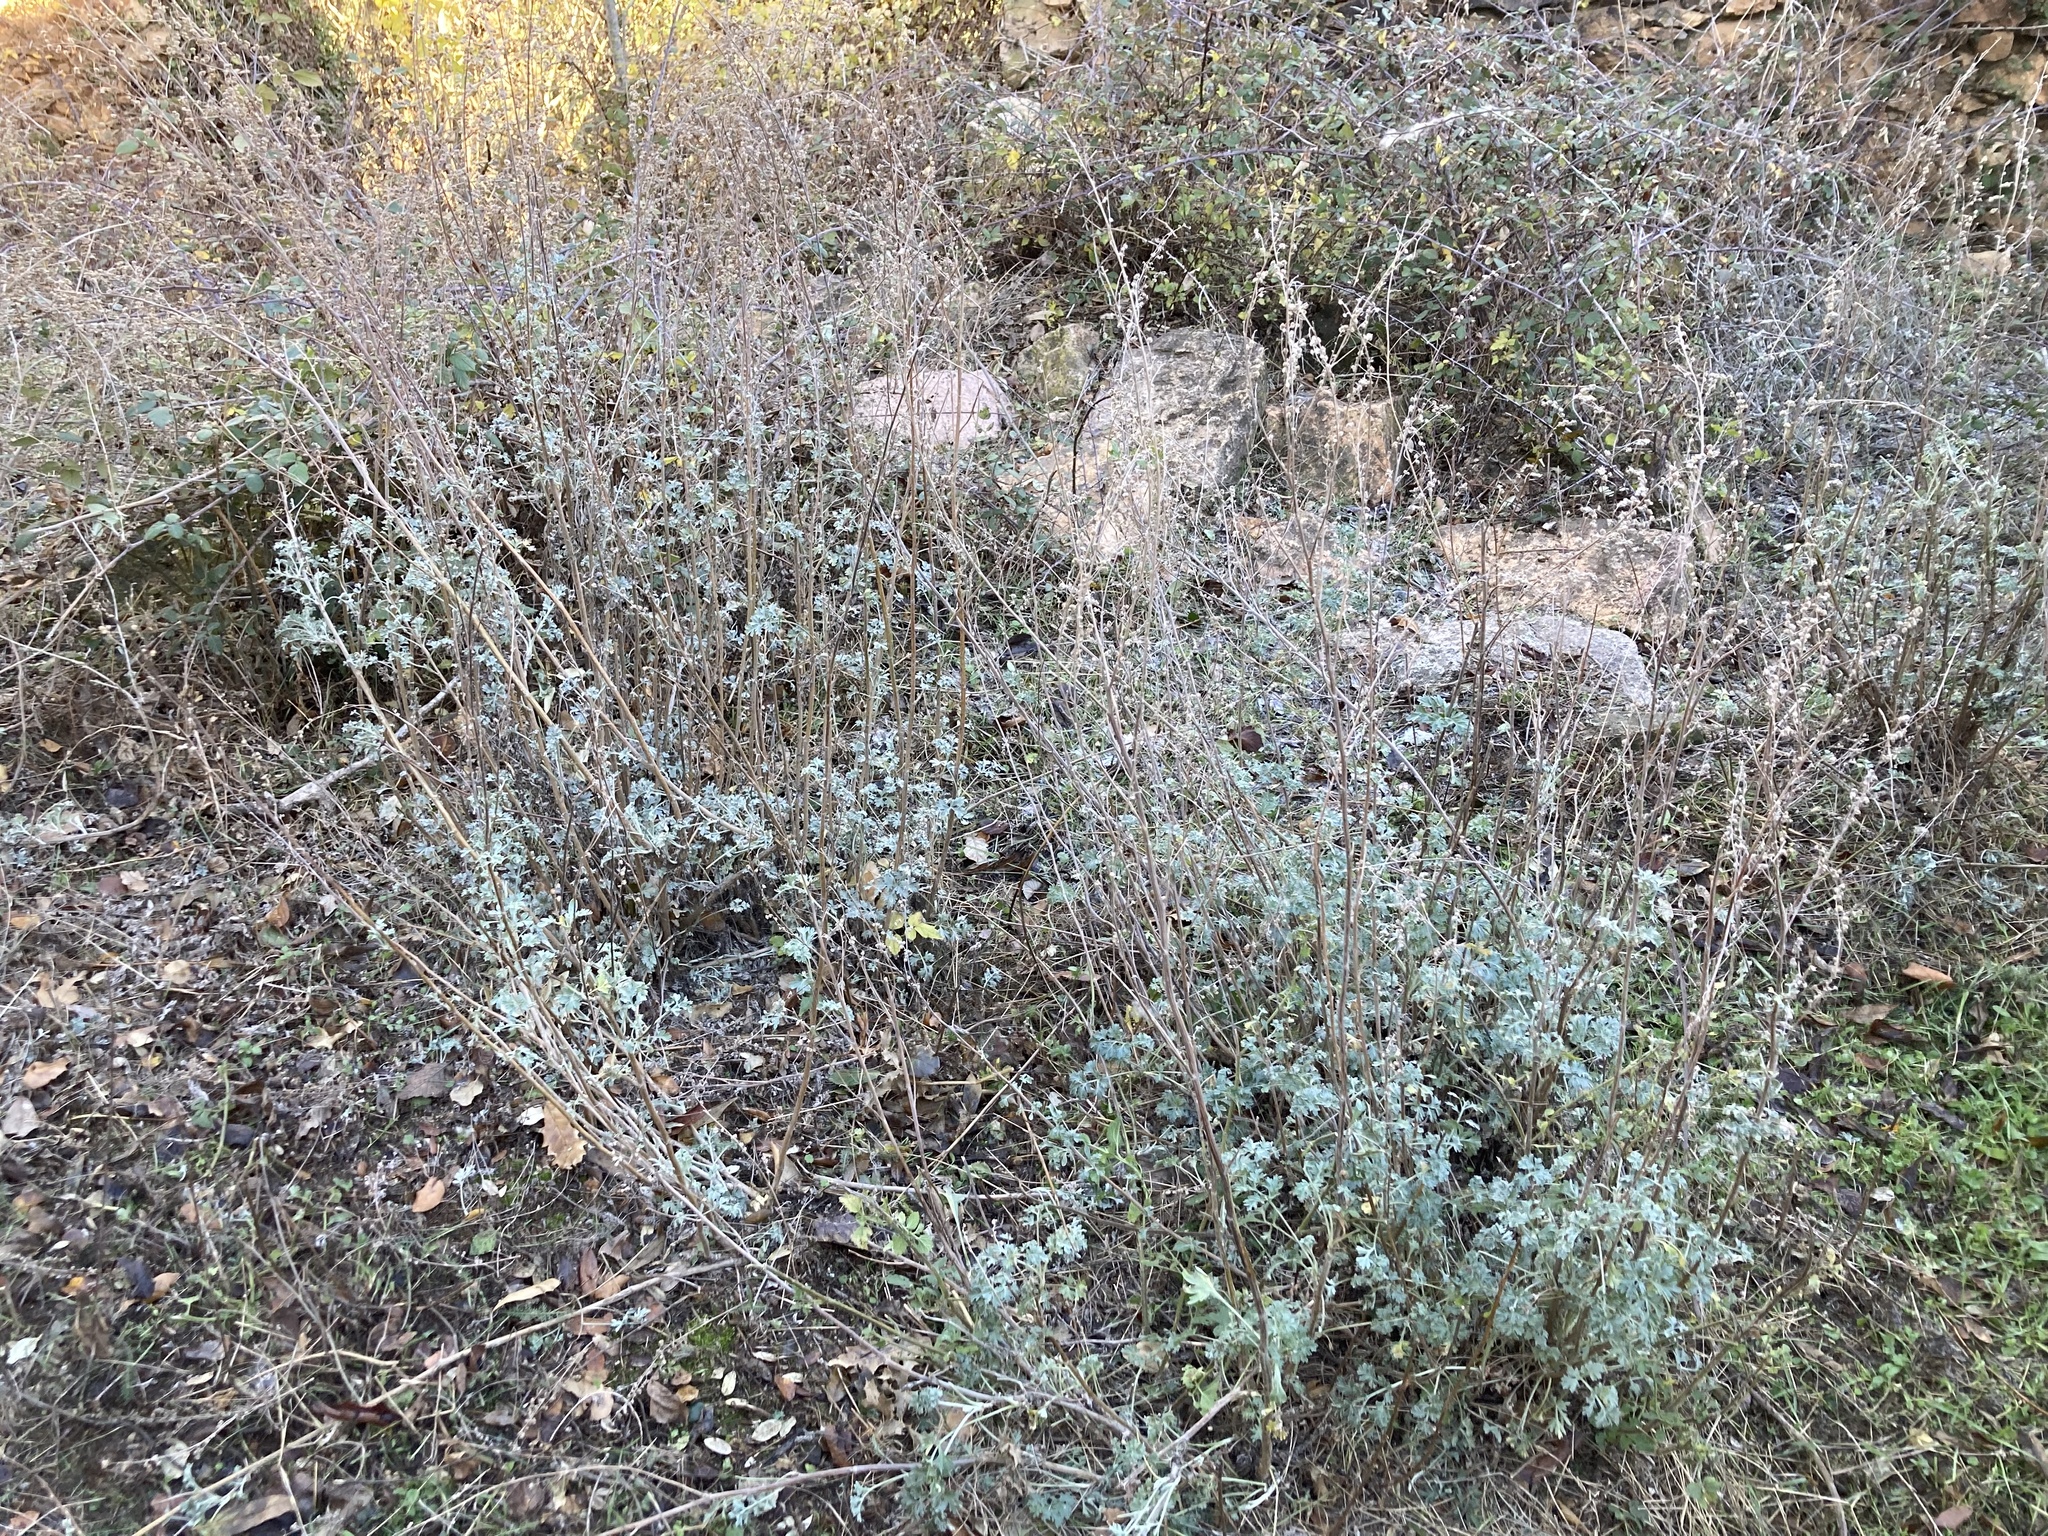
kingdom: Plantae
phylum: Tracheophyta
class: Magnoliopsida
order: Asterales
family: Asteraceae
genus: Artemisia
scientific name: Artemisia absinthium
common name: Wormwood
